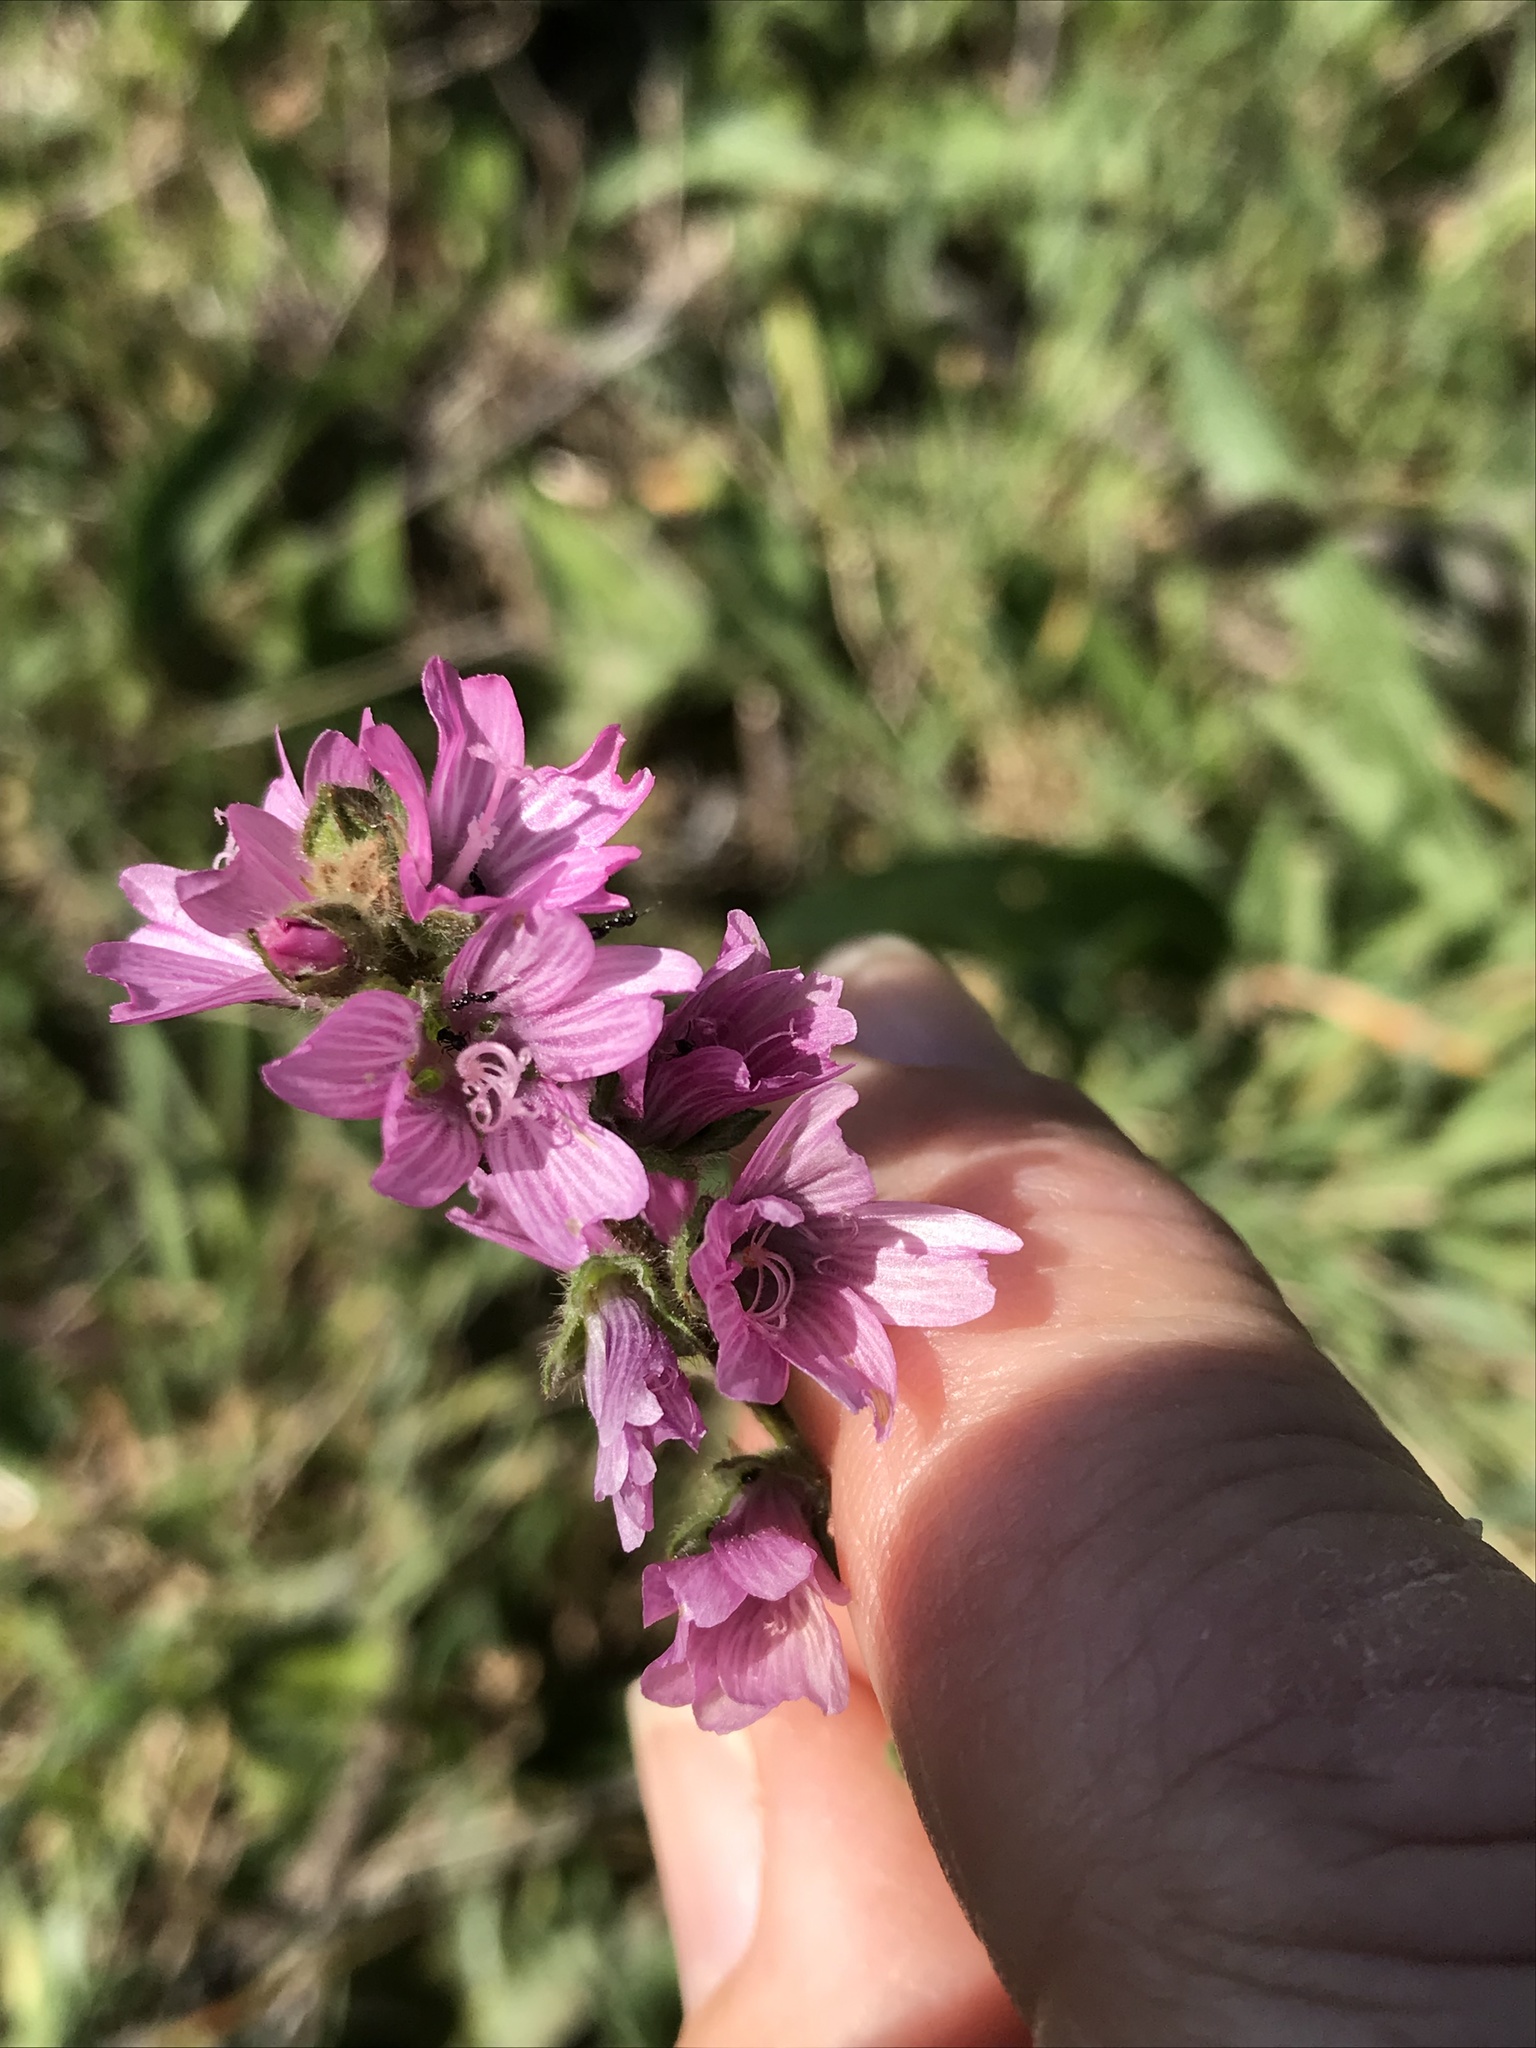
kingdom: Plantae
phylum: Tracheophyta
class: Magnoliopsida
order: Malvales
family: Malvaceae
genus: Sidalcea
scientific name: Sidalcea malviflora
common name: Greek mallow
